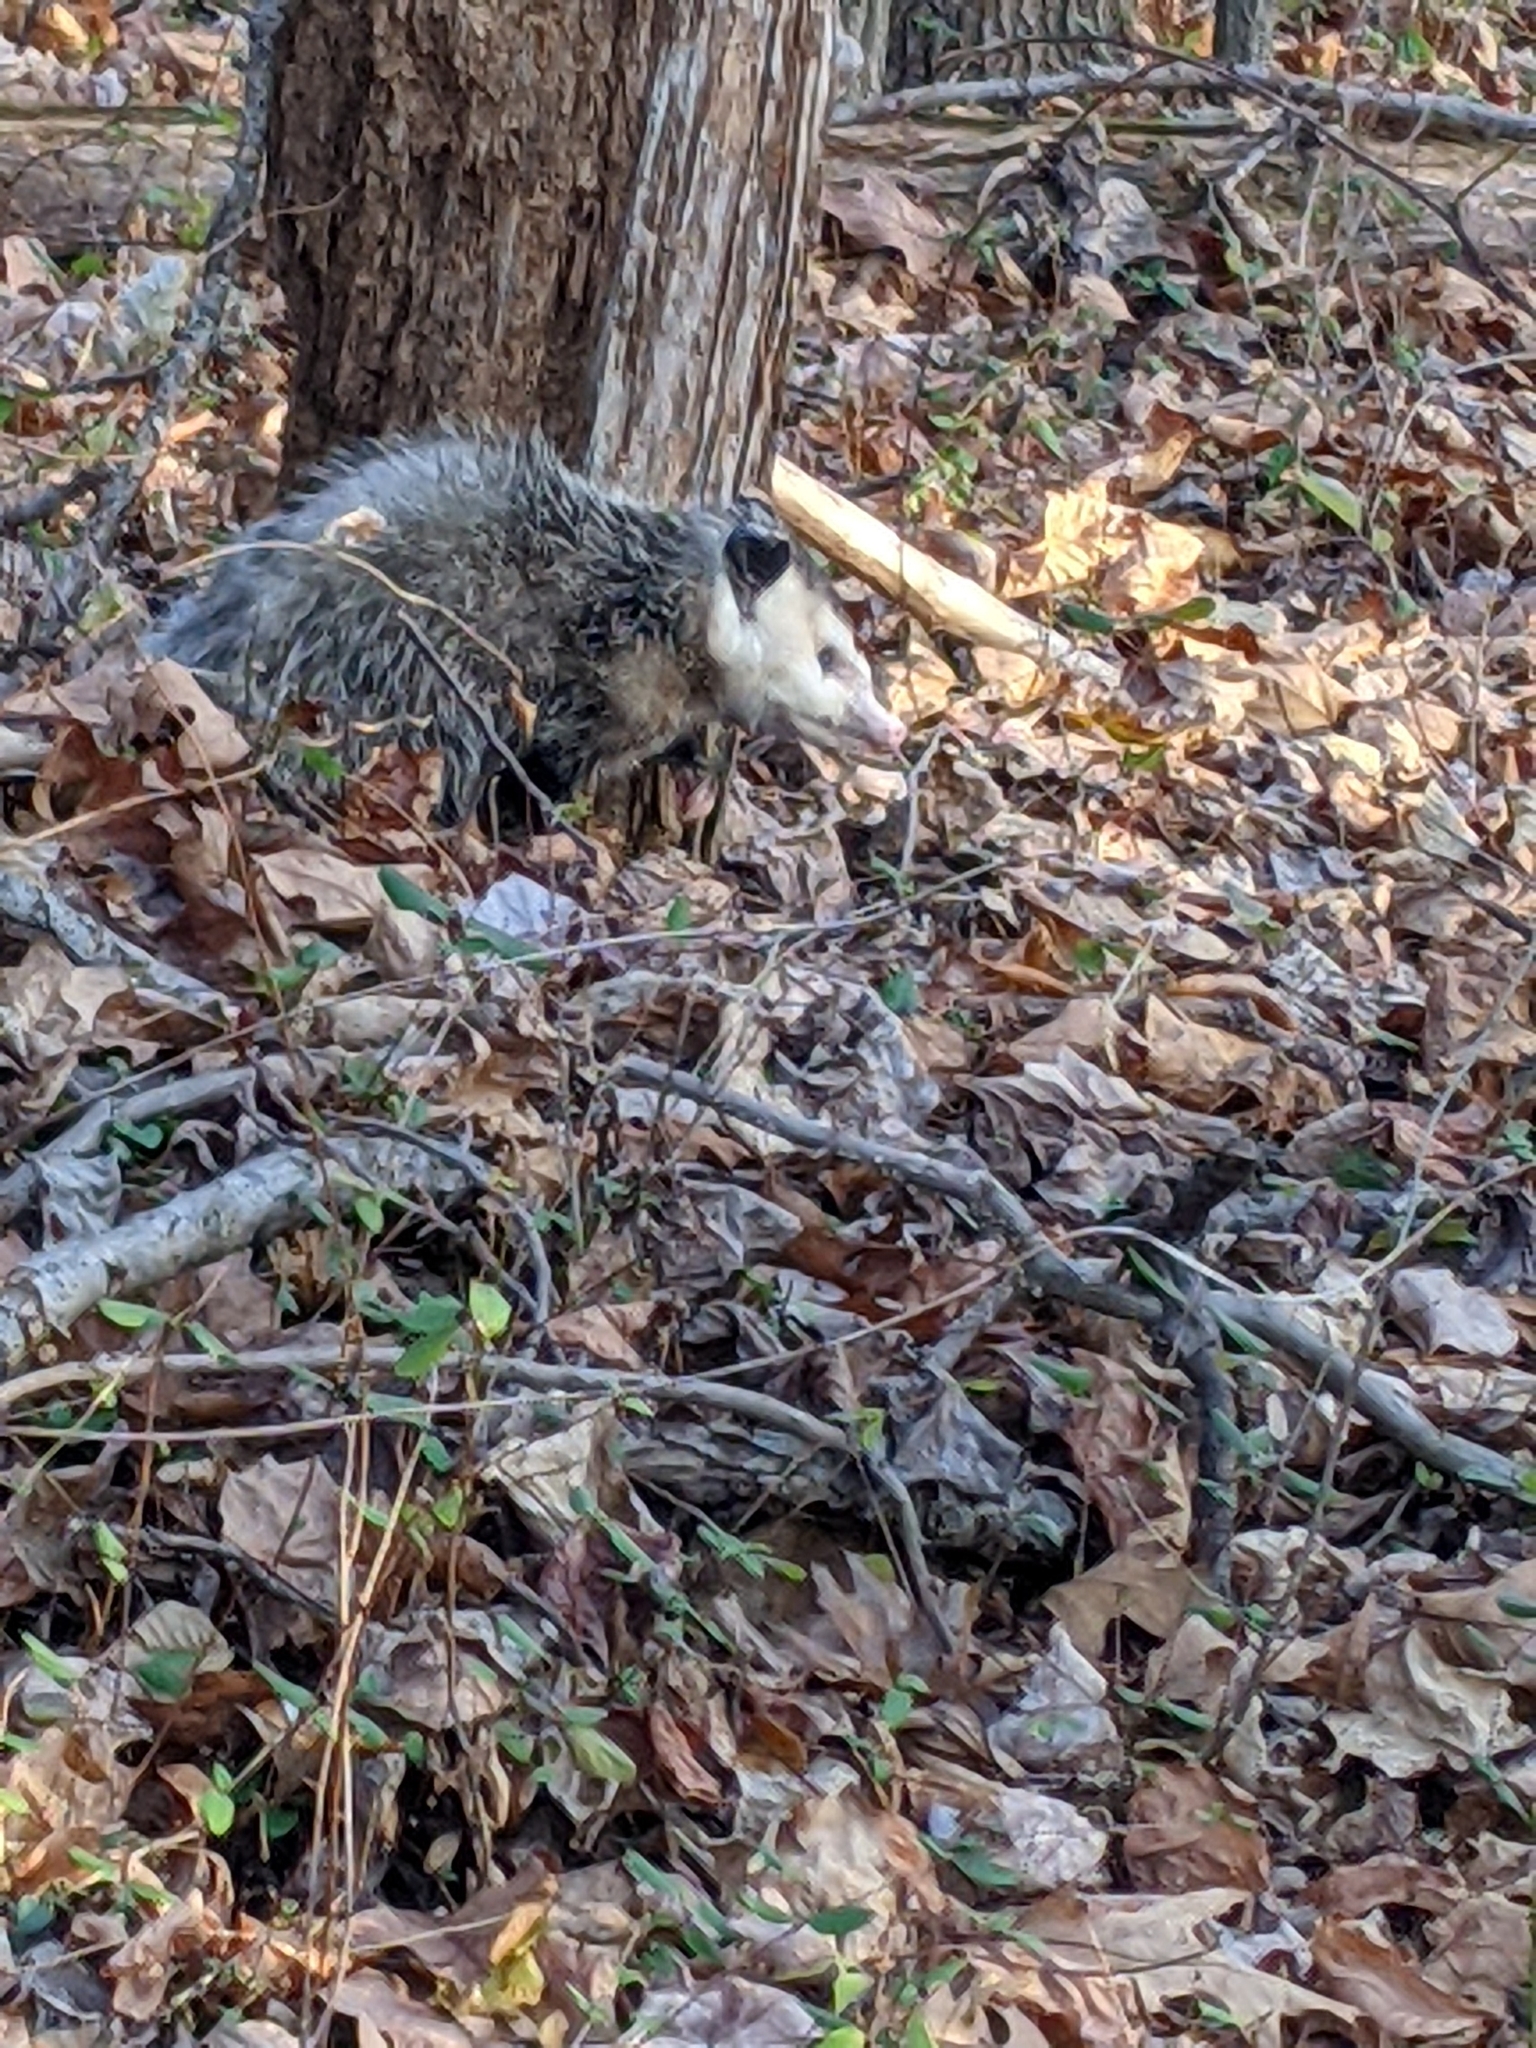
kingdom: Animalia
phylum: Chordata
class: Mammalia
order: Didelphimorphia
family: Didelphidae
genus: Didelphis
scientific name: Didelphis virginiana
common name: Virginia opossum
